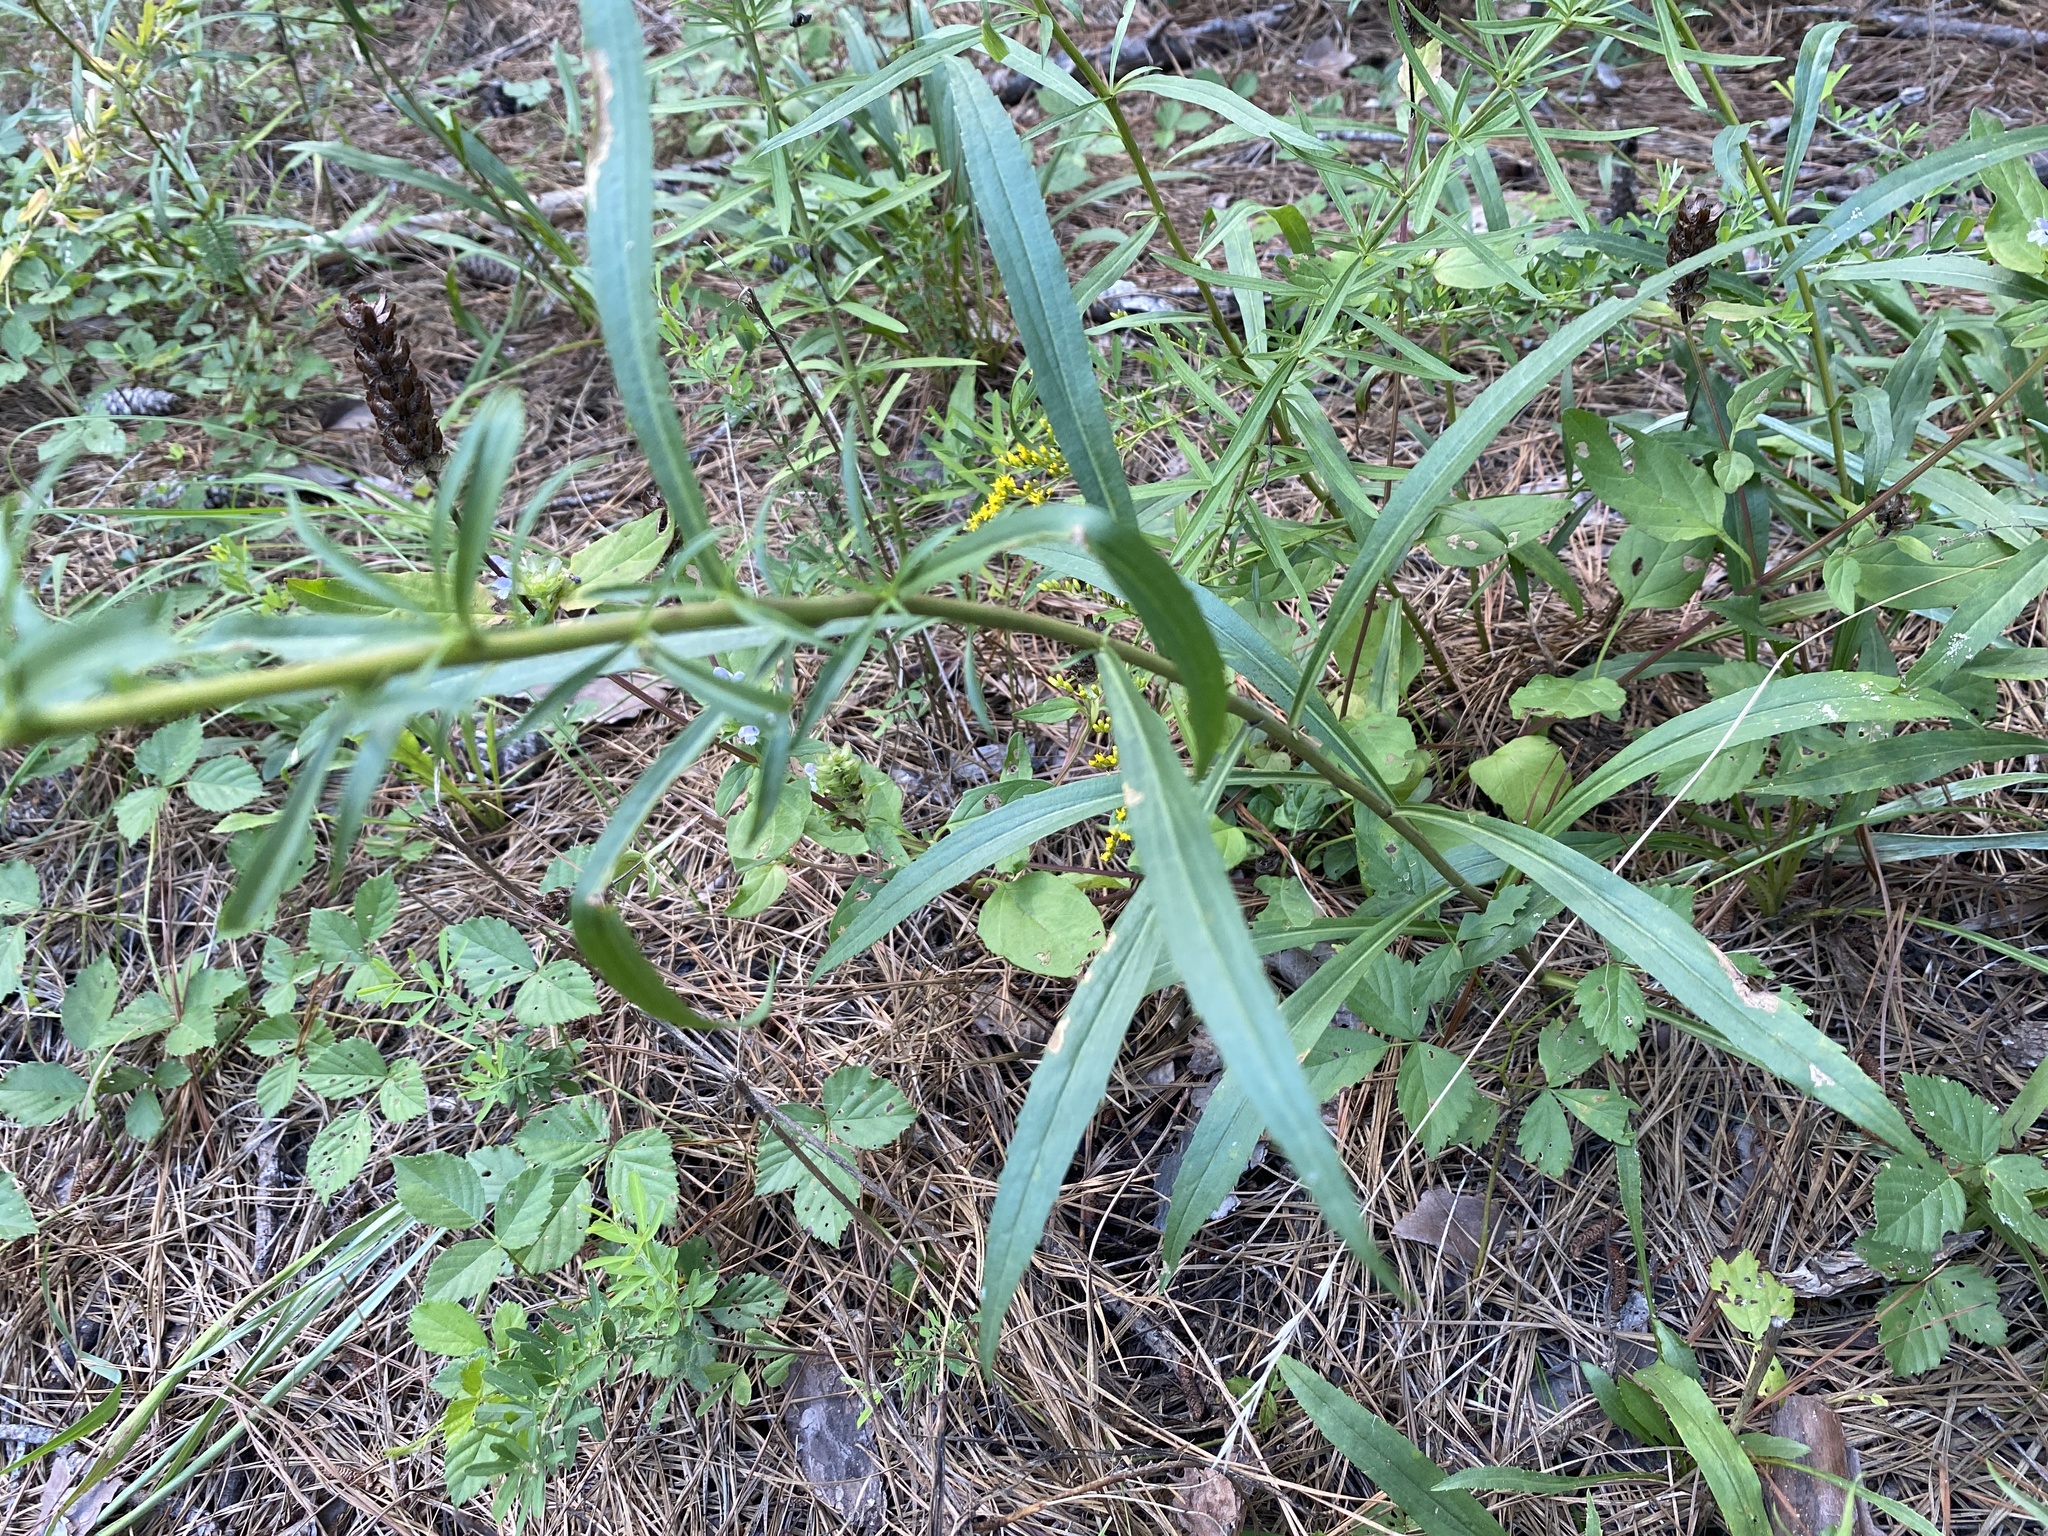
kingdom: Plantae
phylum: Tracheophyta
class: Magnoliopsida
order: Asterales
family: Asteraceae
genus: Solidago
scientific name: Solidago pinetorum
